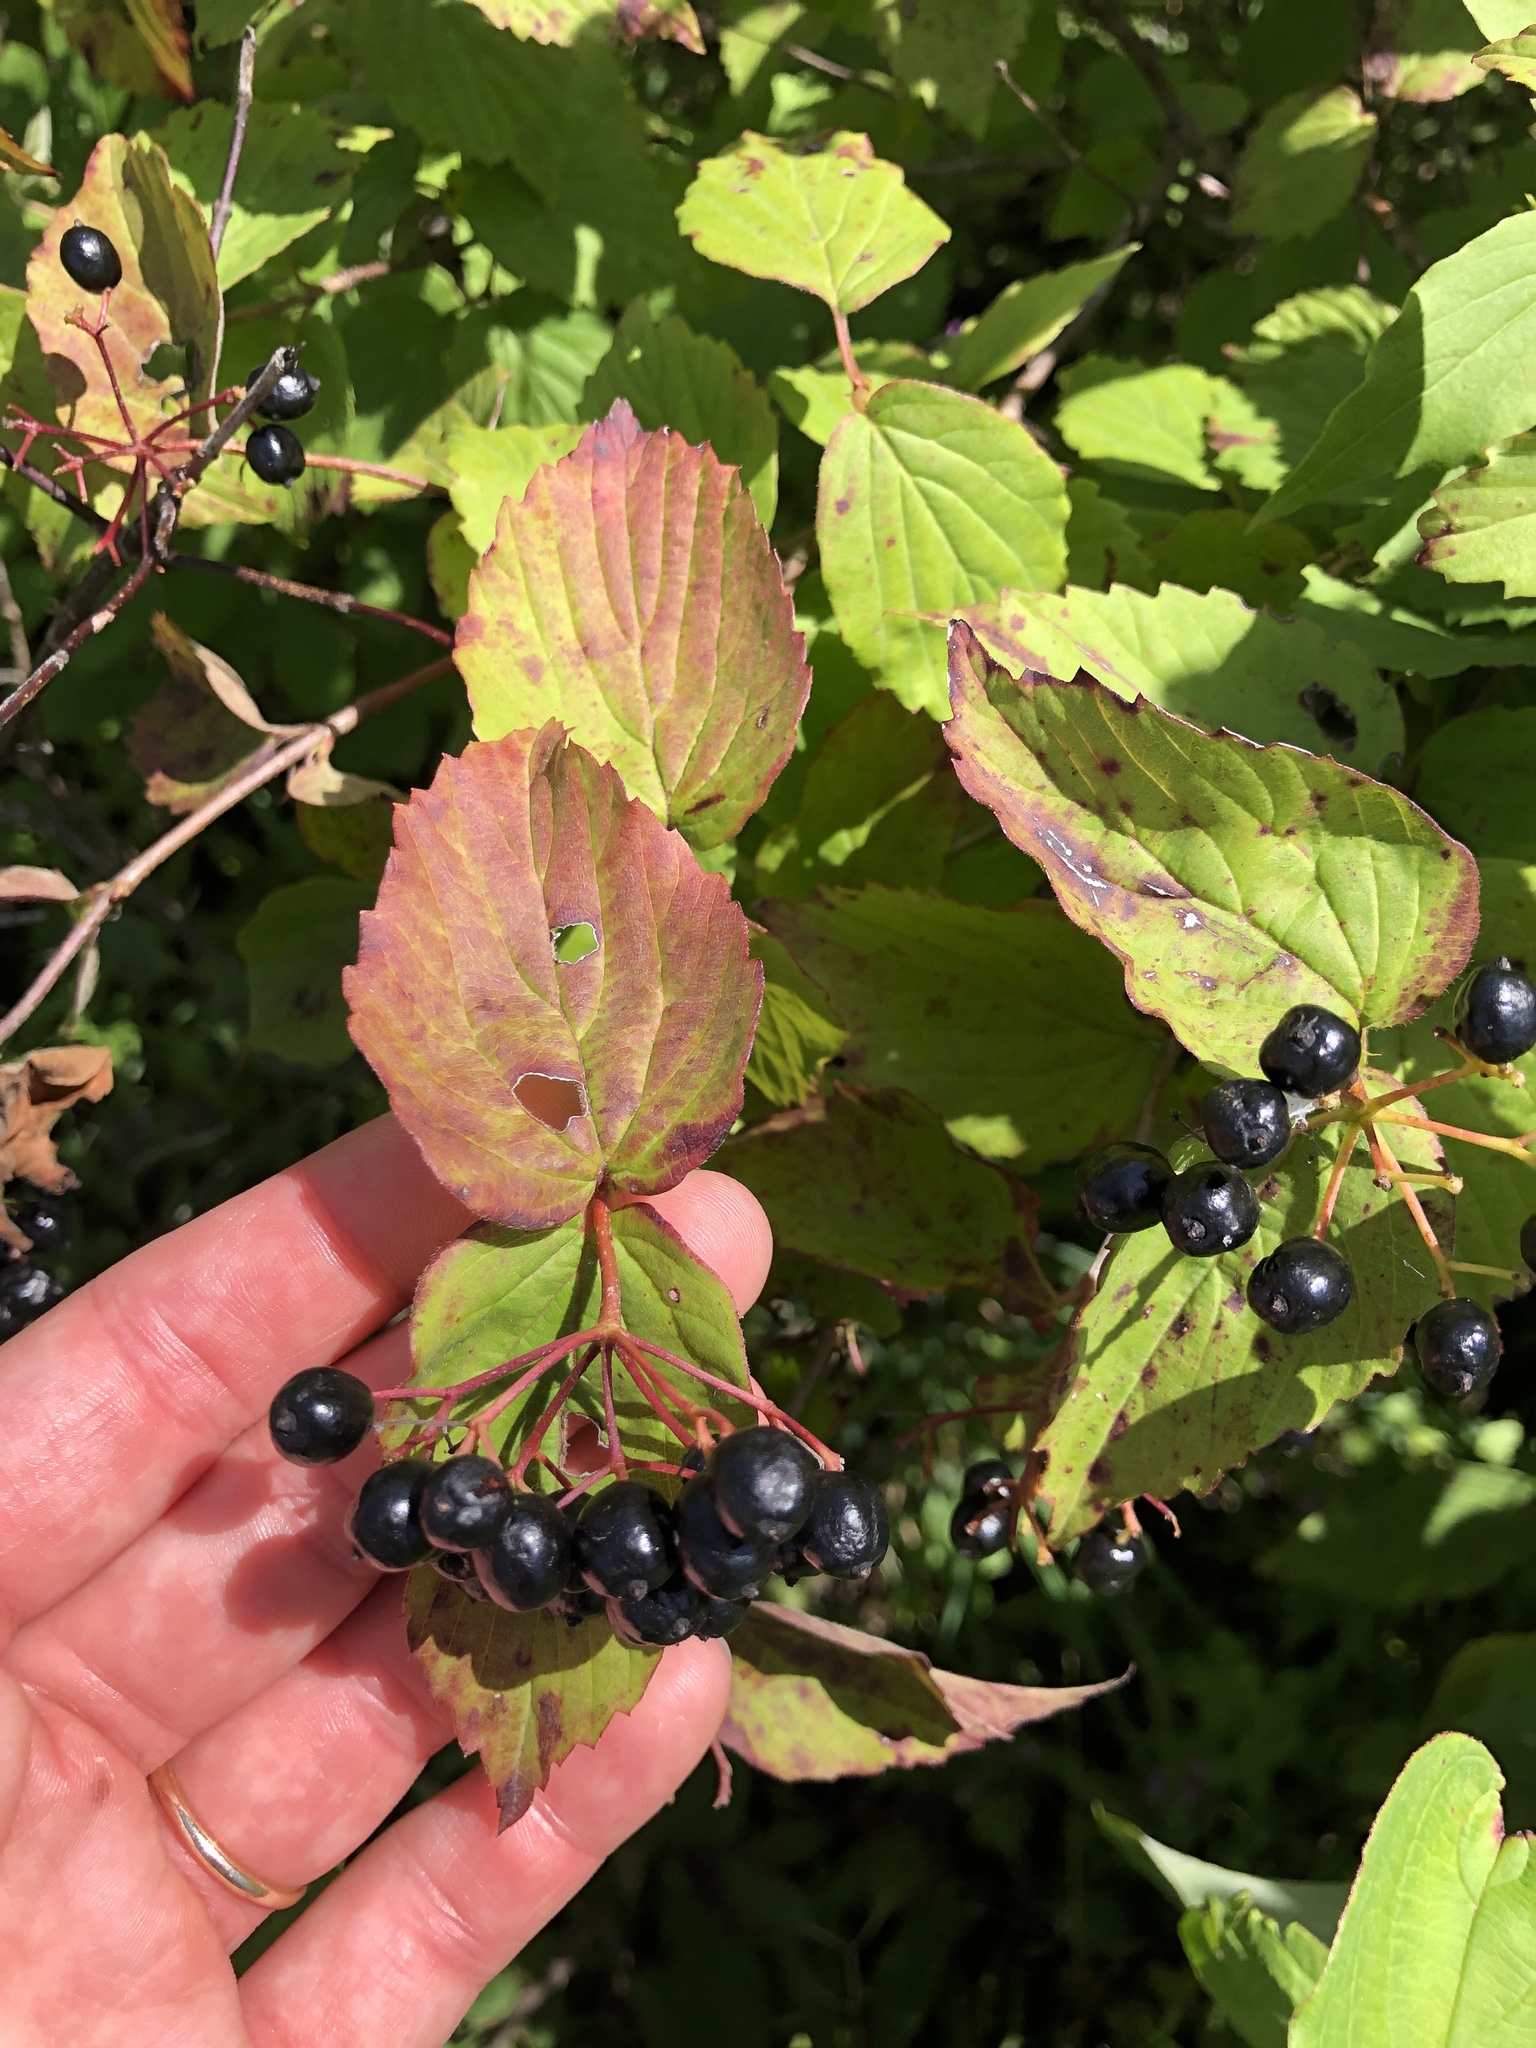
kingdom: Plantae
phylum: Tracheophyta
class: Magnoliopsida
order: Dipsacales
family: Viburnaceae
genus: Viburnum
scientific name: Viburnum rafinesqueanum
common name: Downy arrow-wood
